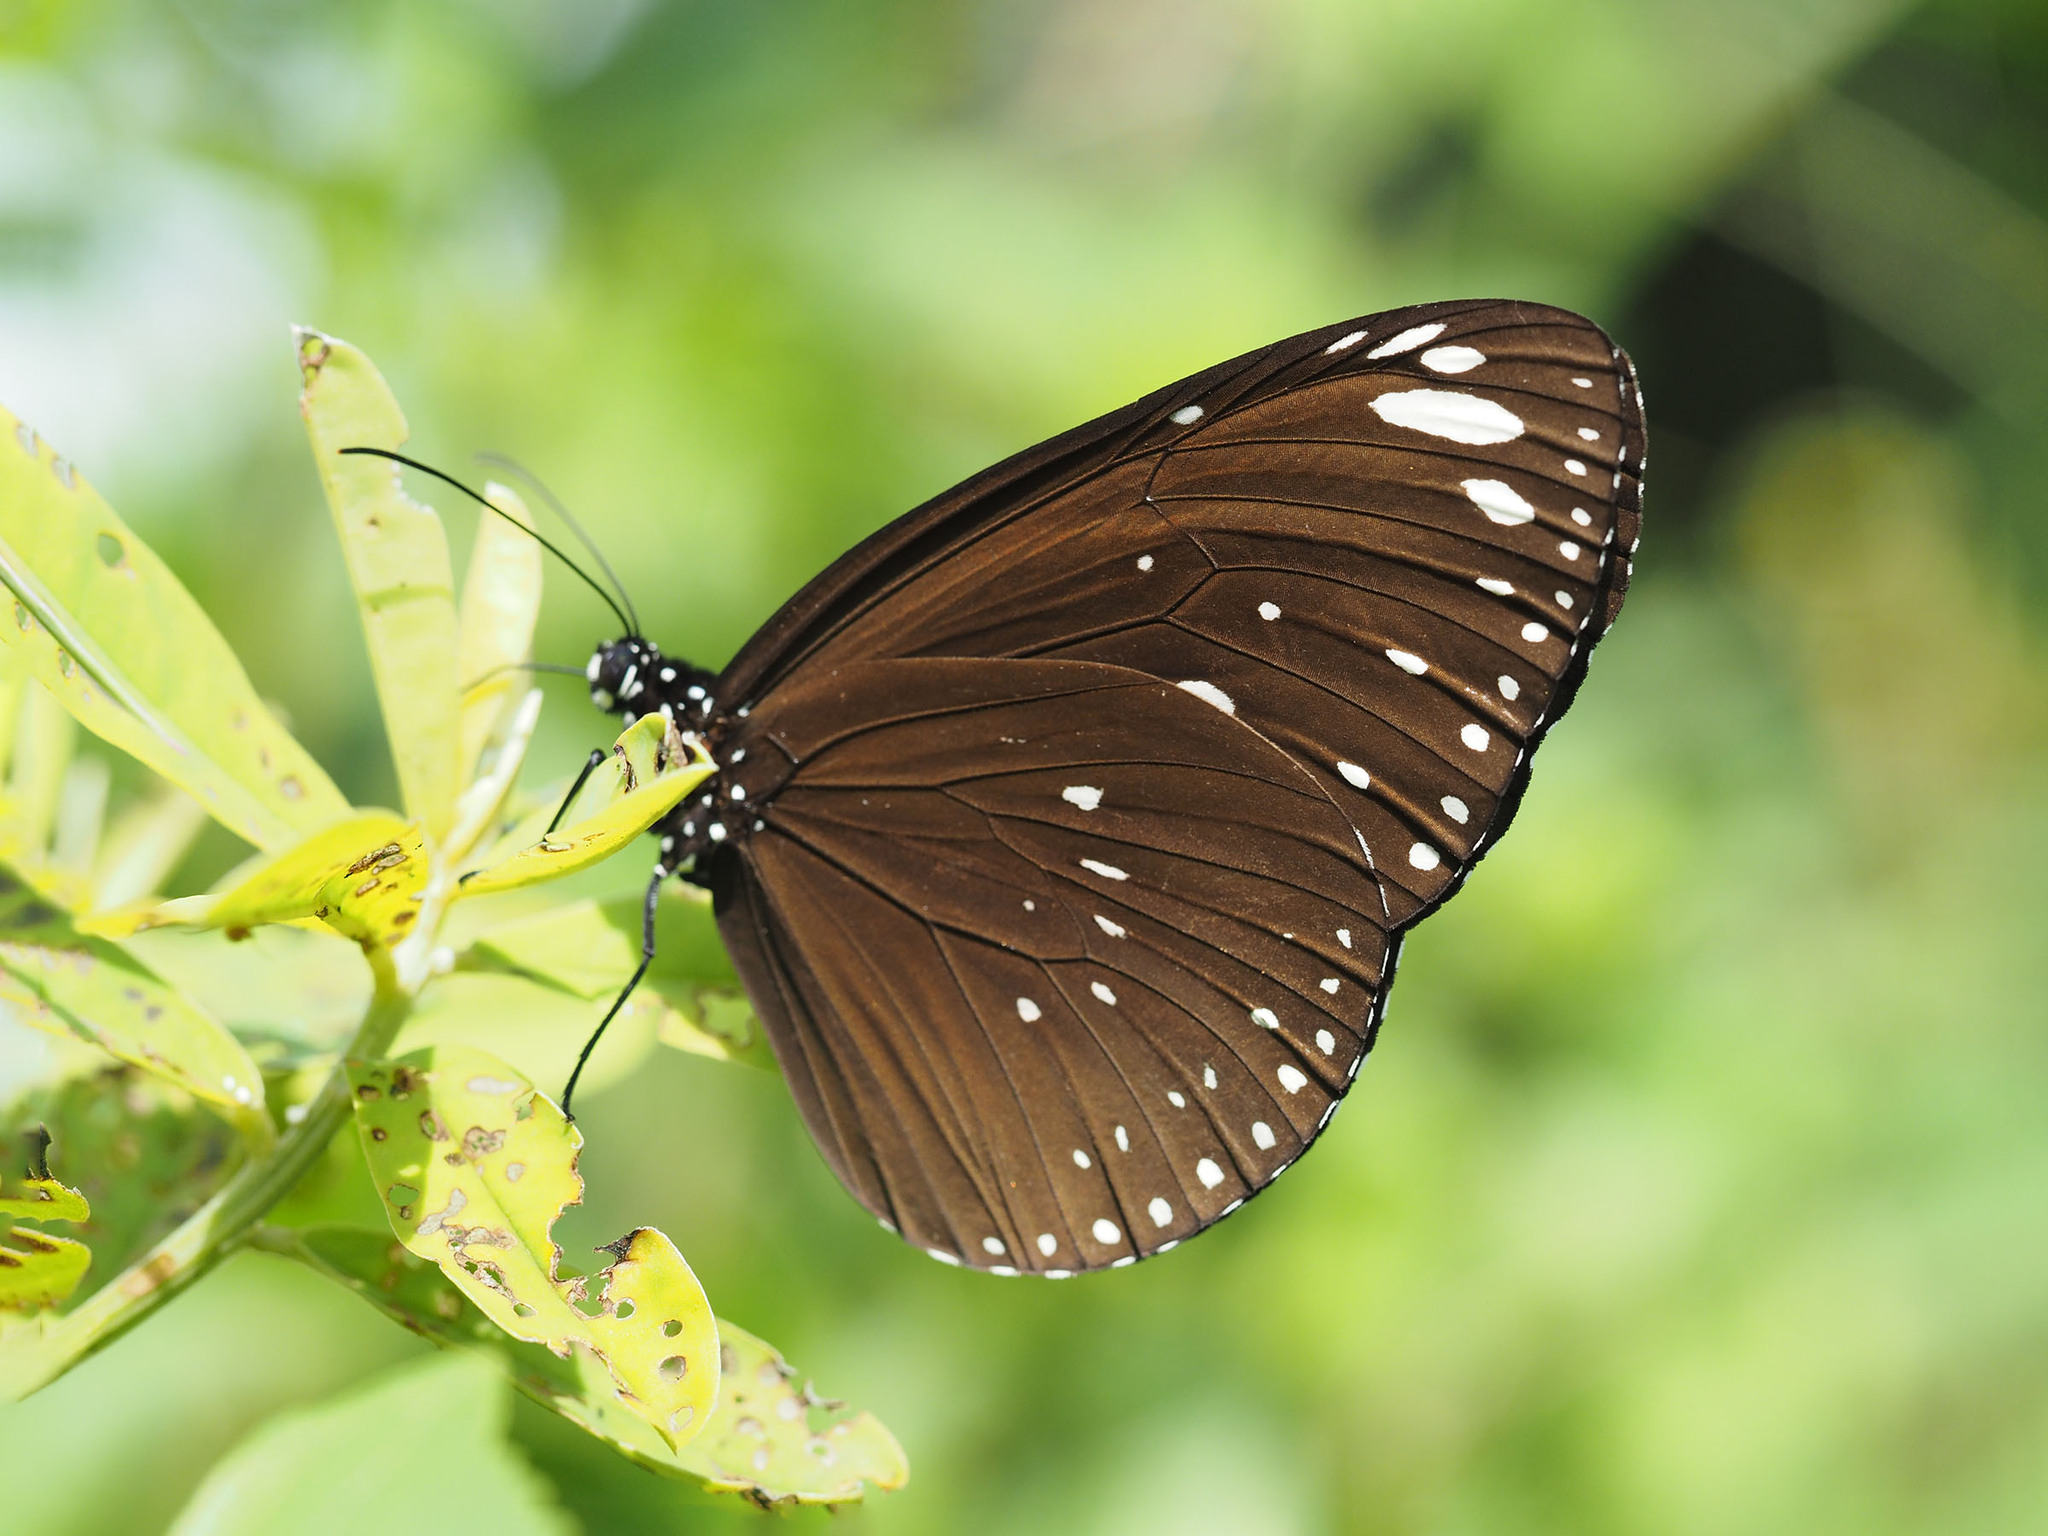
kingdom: Animalia
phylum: Arthropoda
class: Insecta
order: Lepidoptera
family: Nymphalidae
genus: Euploea
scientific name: Euploea crameri
